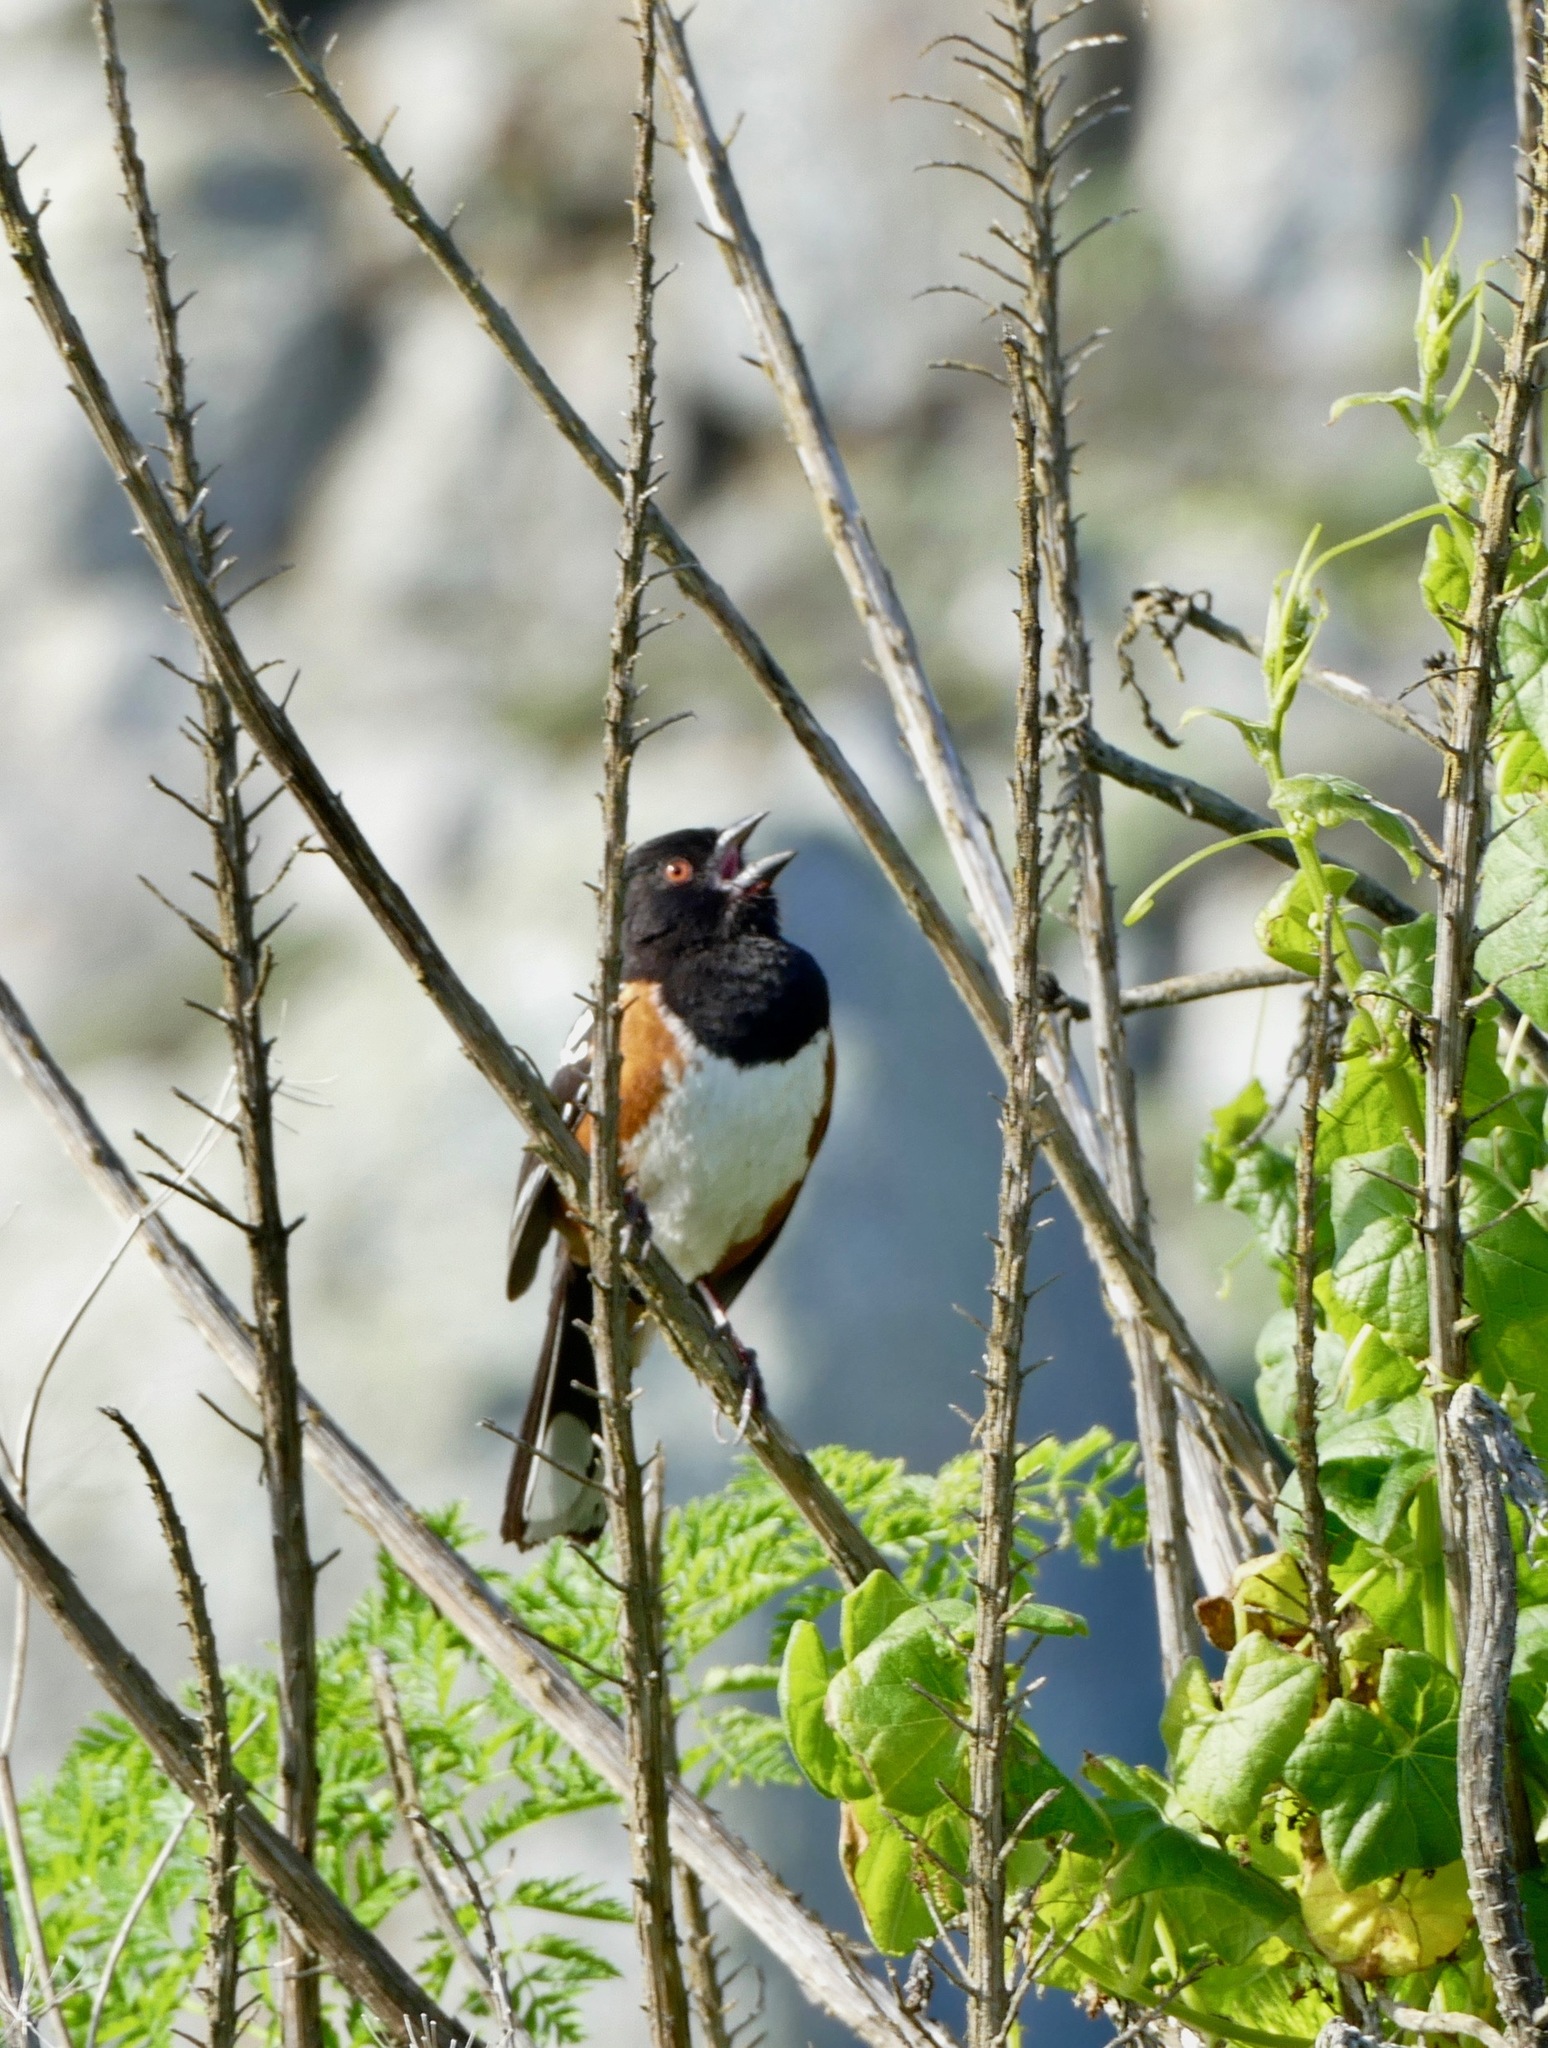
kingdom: Animalia
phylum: Chordata
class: Aves
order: Passeriformes
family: Passerellidae
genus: Pipilo
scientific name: Pipilo maculatus
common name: Spotted towhee
